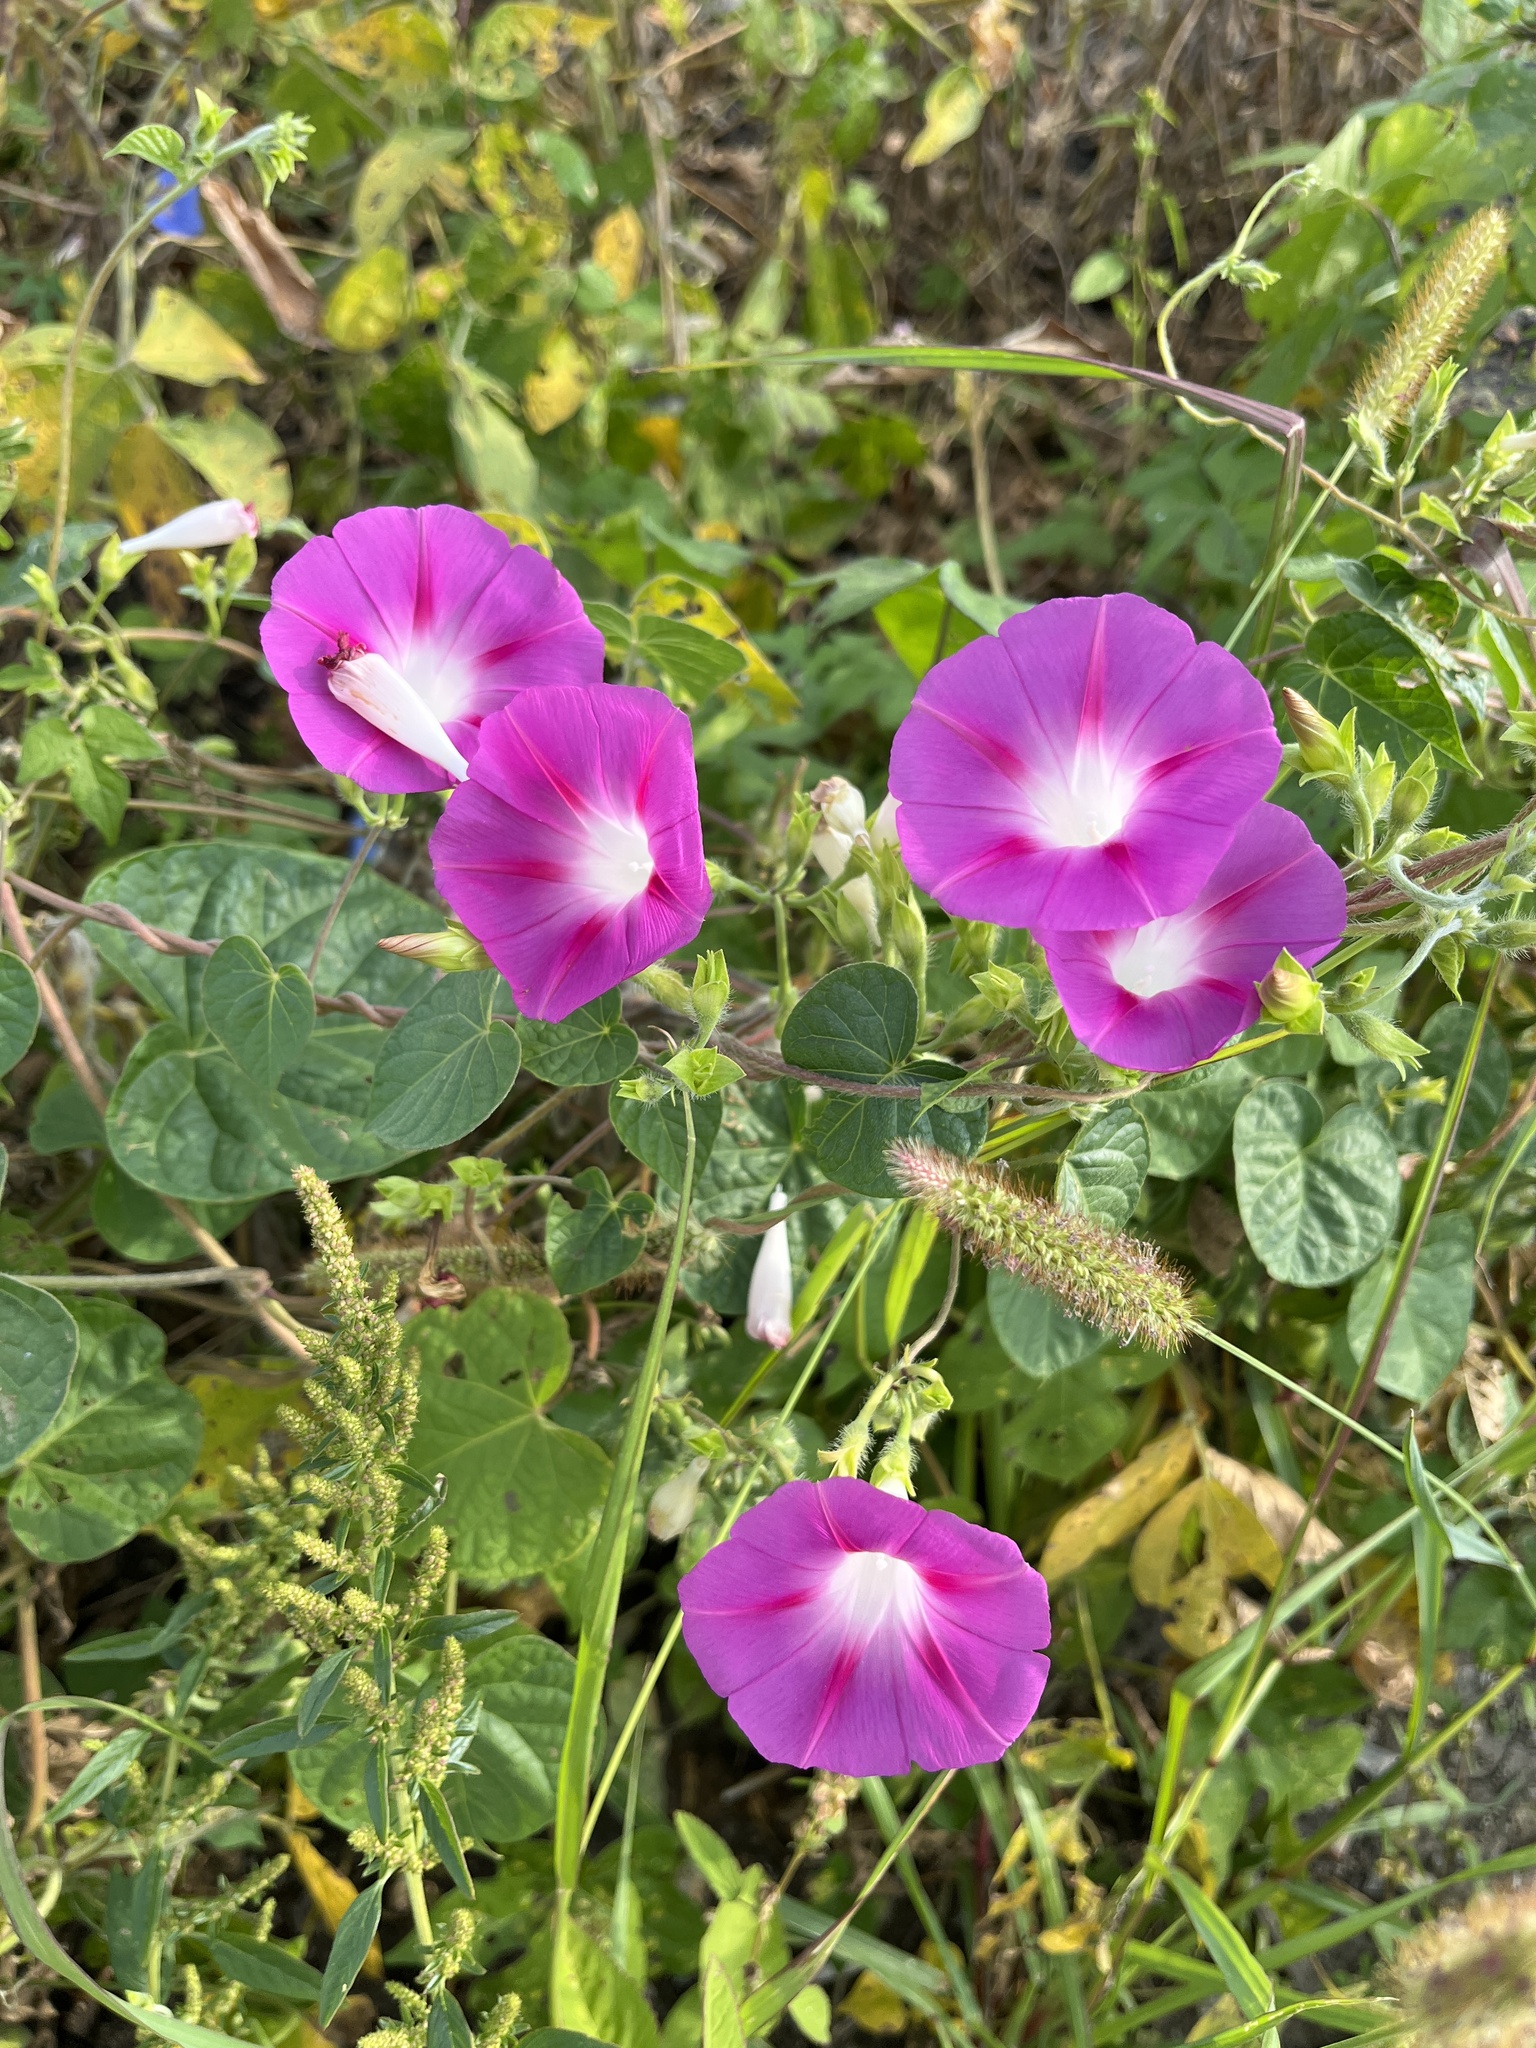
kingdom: Plantae
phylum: Tracheophyta
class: Magnoliopsida
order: Solanales
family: Convolvulaceae
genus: Ipomoea
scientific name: Ipomoea purpurea
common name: Common morning-glory
